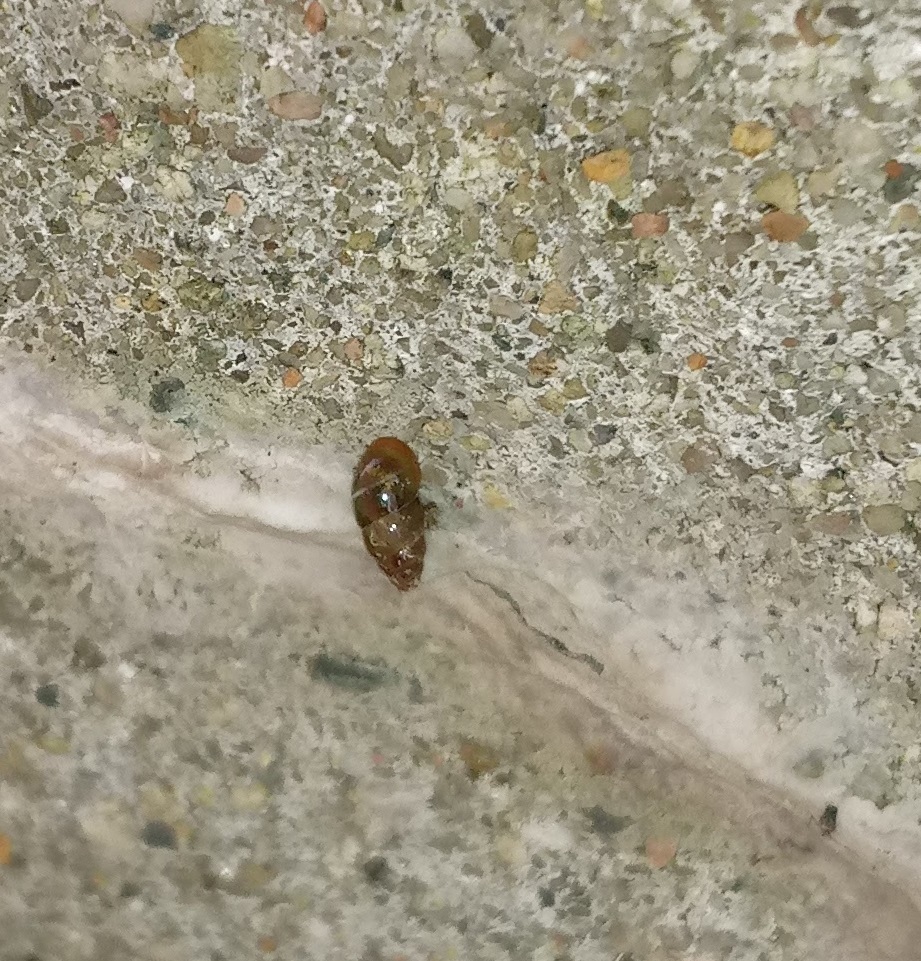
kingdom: Animalia
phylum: Mollusca
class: Gastropoda
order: Stylommatophora
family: Cochlicopidae
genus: Cochlicopa
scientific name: Cochlicopa lubrica
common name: Glossy pillar snail
